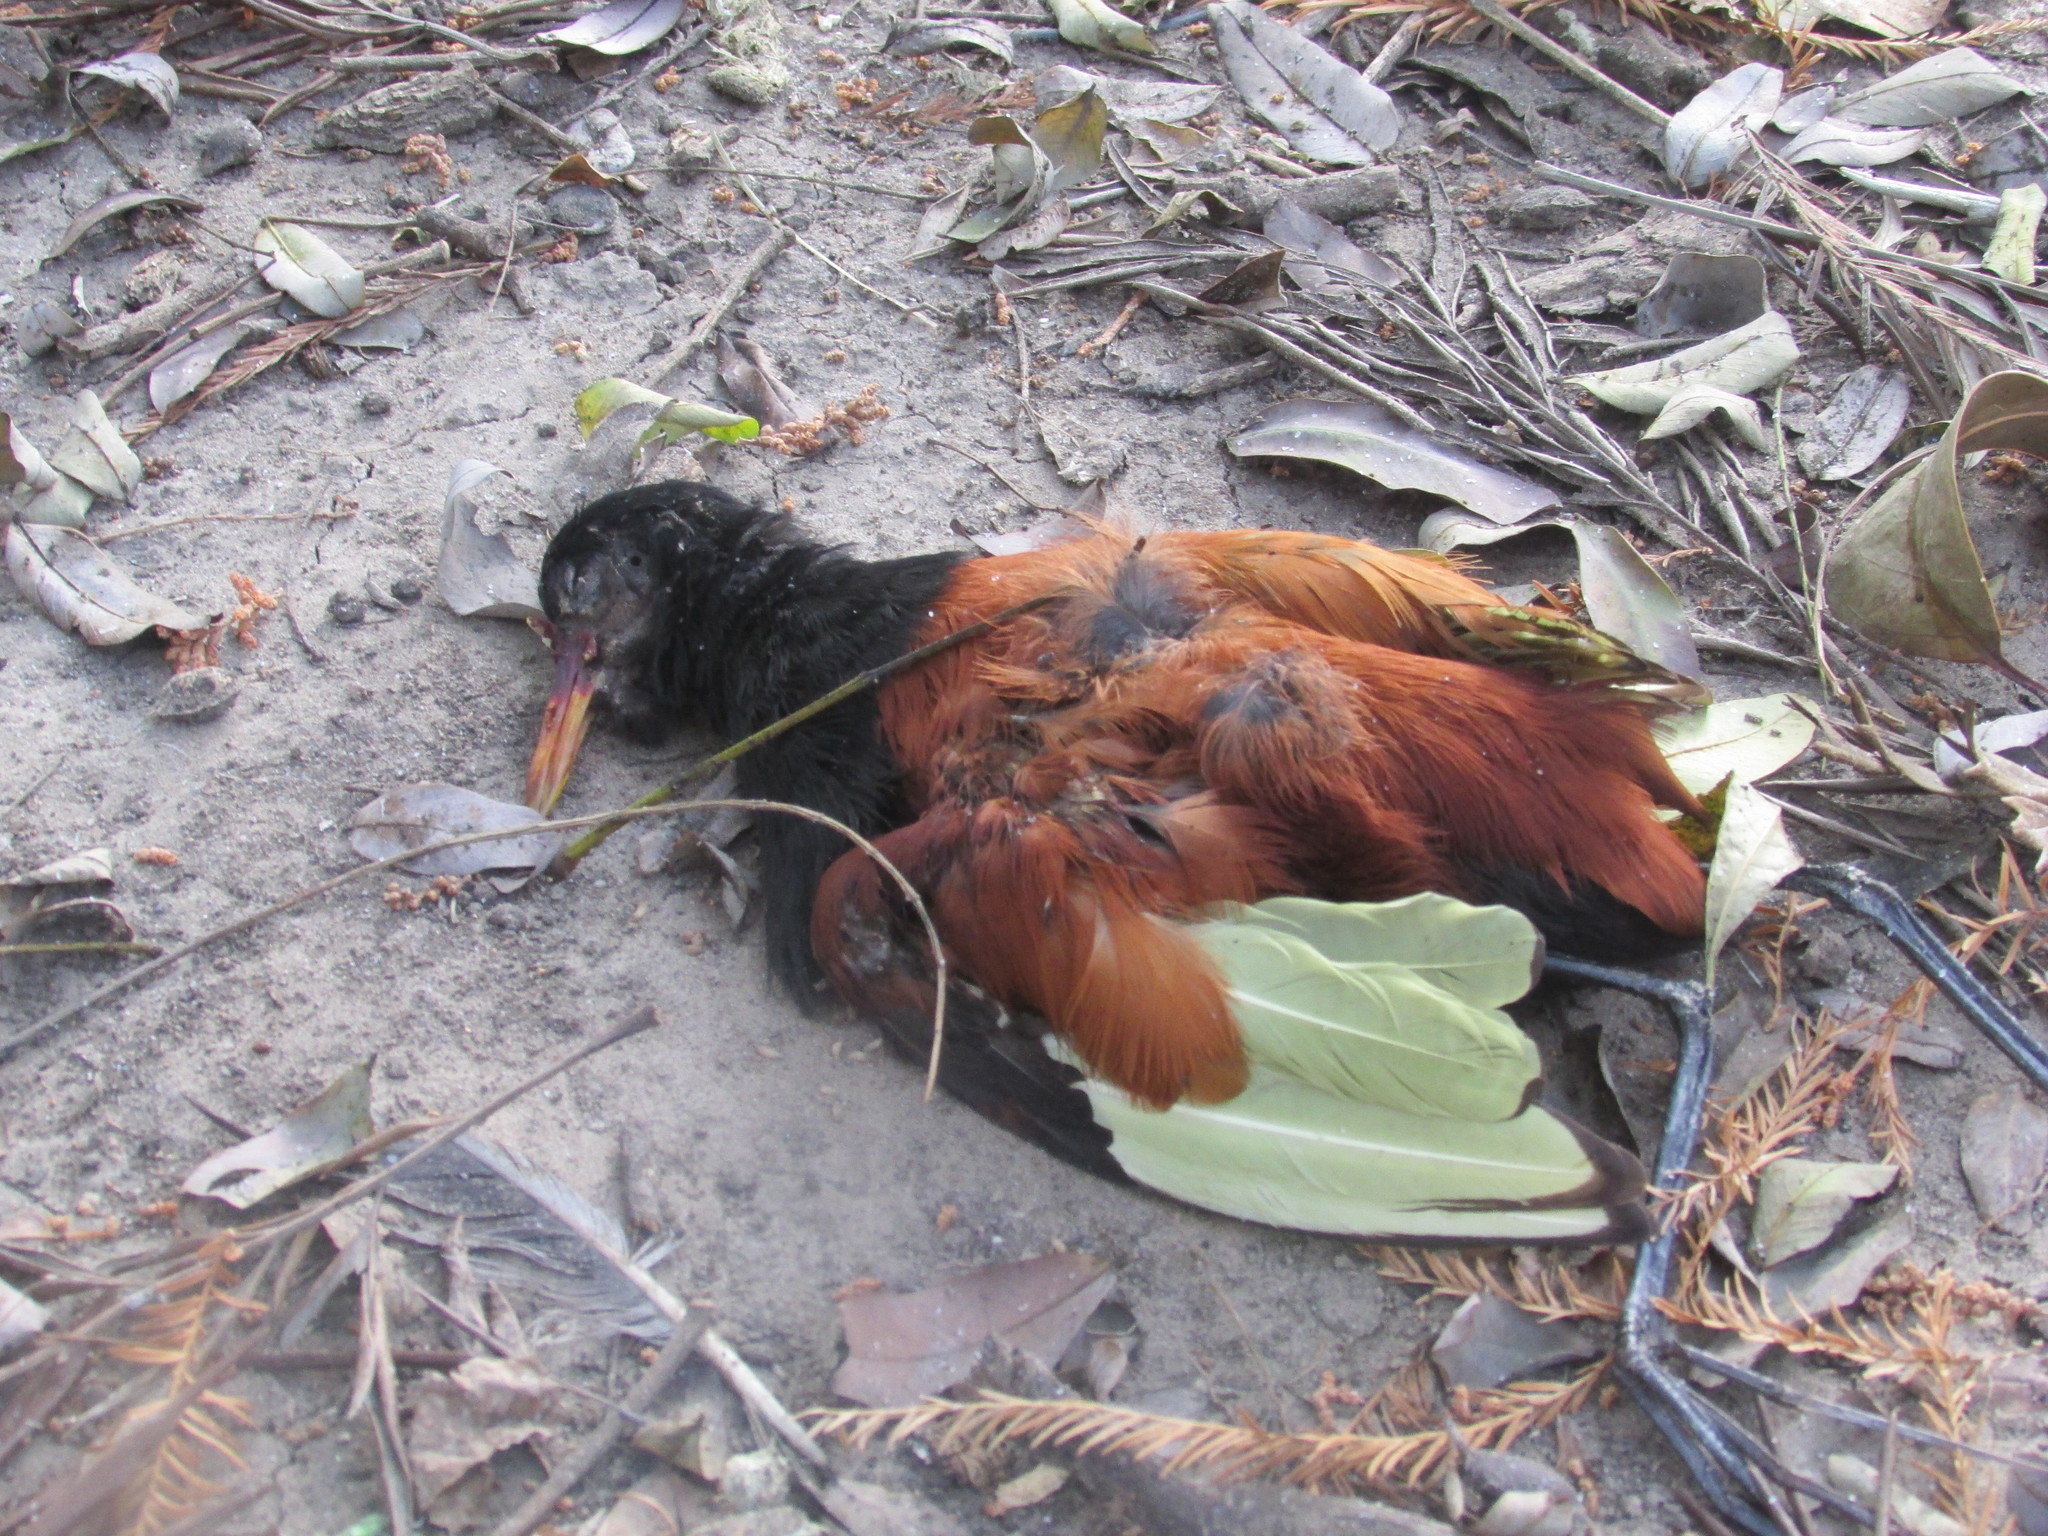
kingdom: Animalia
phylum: Chordata
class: Aves
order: Charadriiformes
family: Jacanidae
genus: Jacana
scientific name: Jacana jacana
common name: Wattled jacana
